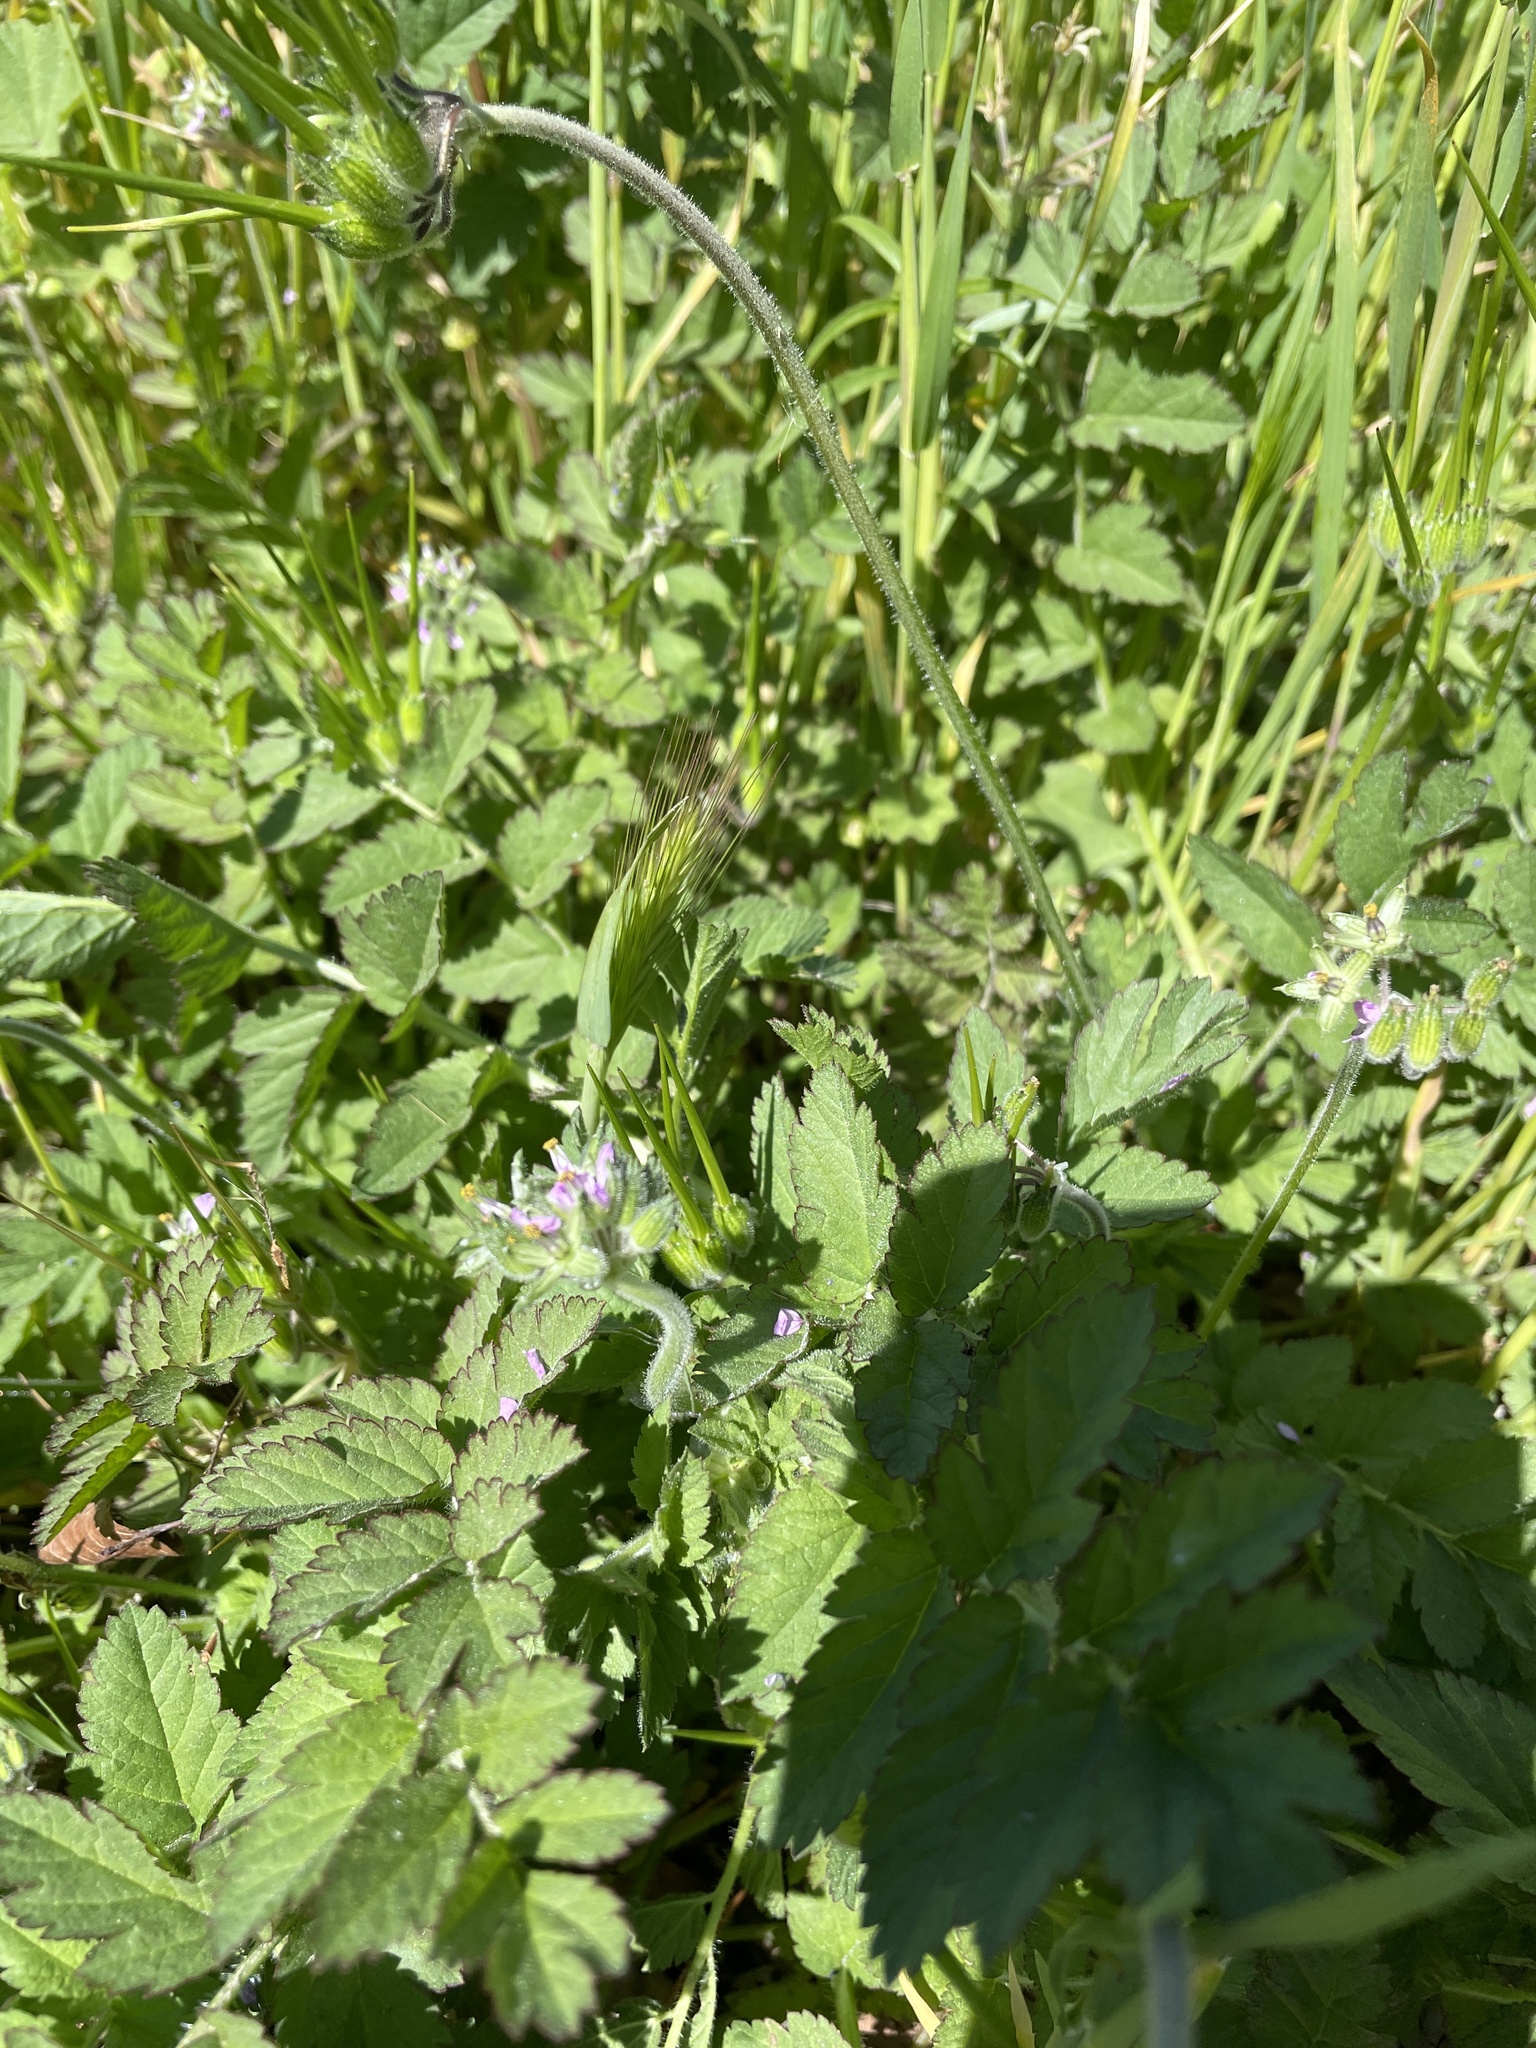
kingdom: Plantae
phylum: Tracheophyta
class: Magnoliopsida
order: Geraniales
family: Geraniaceae
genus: Erodium
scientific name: Erodium moschatum
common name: Musk stork's-bill
